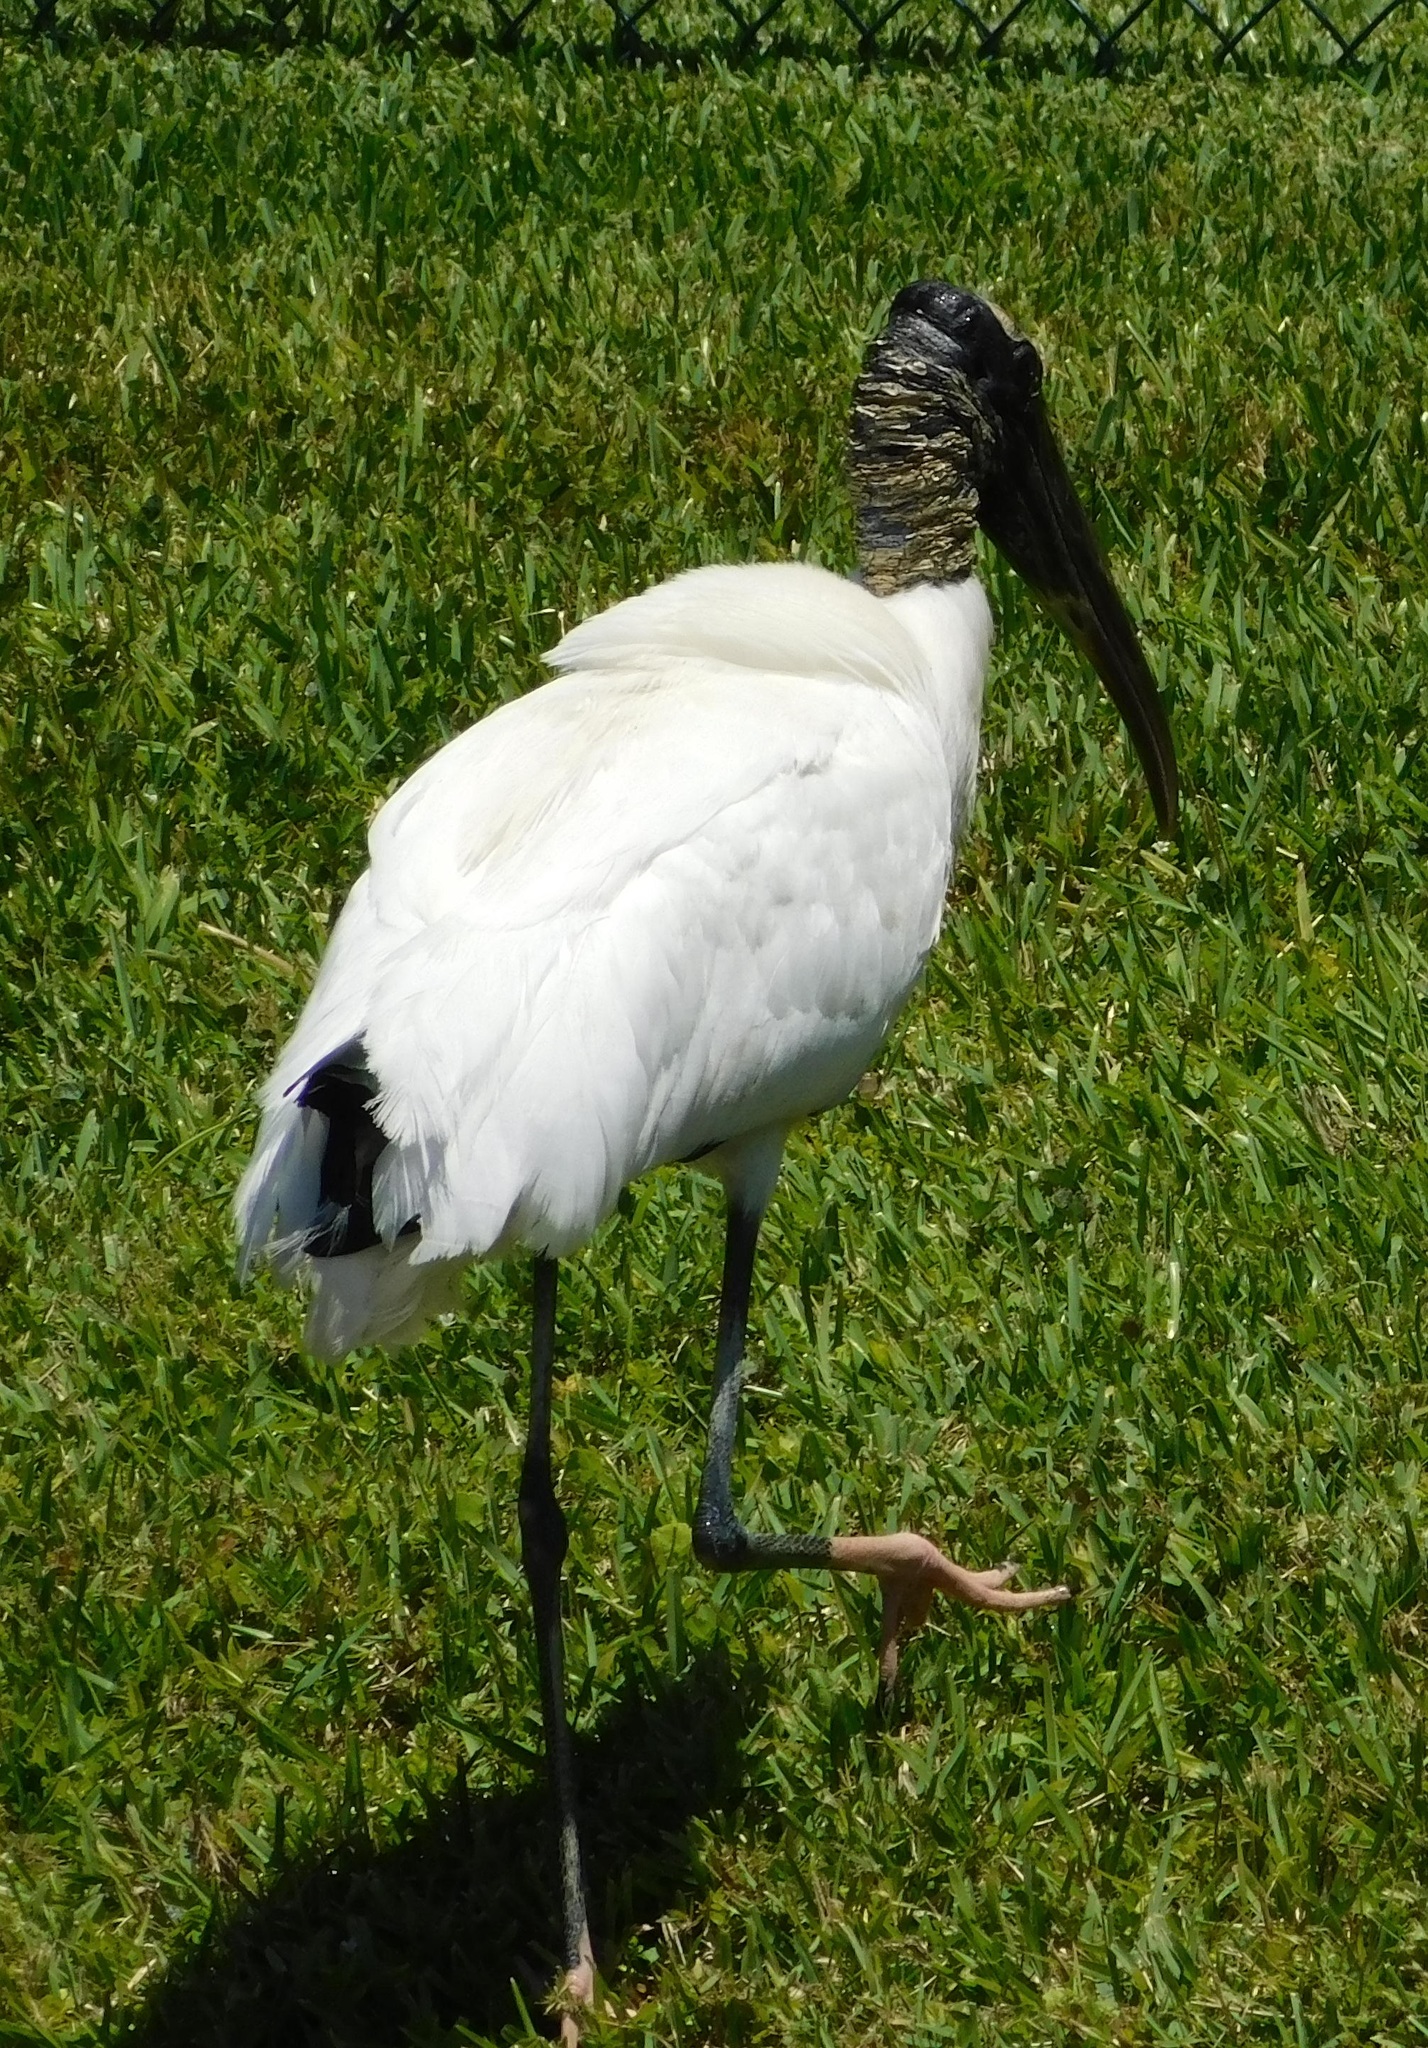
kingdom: Animalia
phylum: Chordata
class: Aves
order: Ciconiiformes
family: Ciconiidae
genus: Mycteria
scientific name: Mycteria americana
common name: Wood stork
